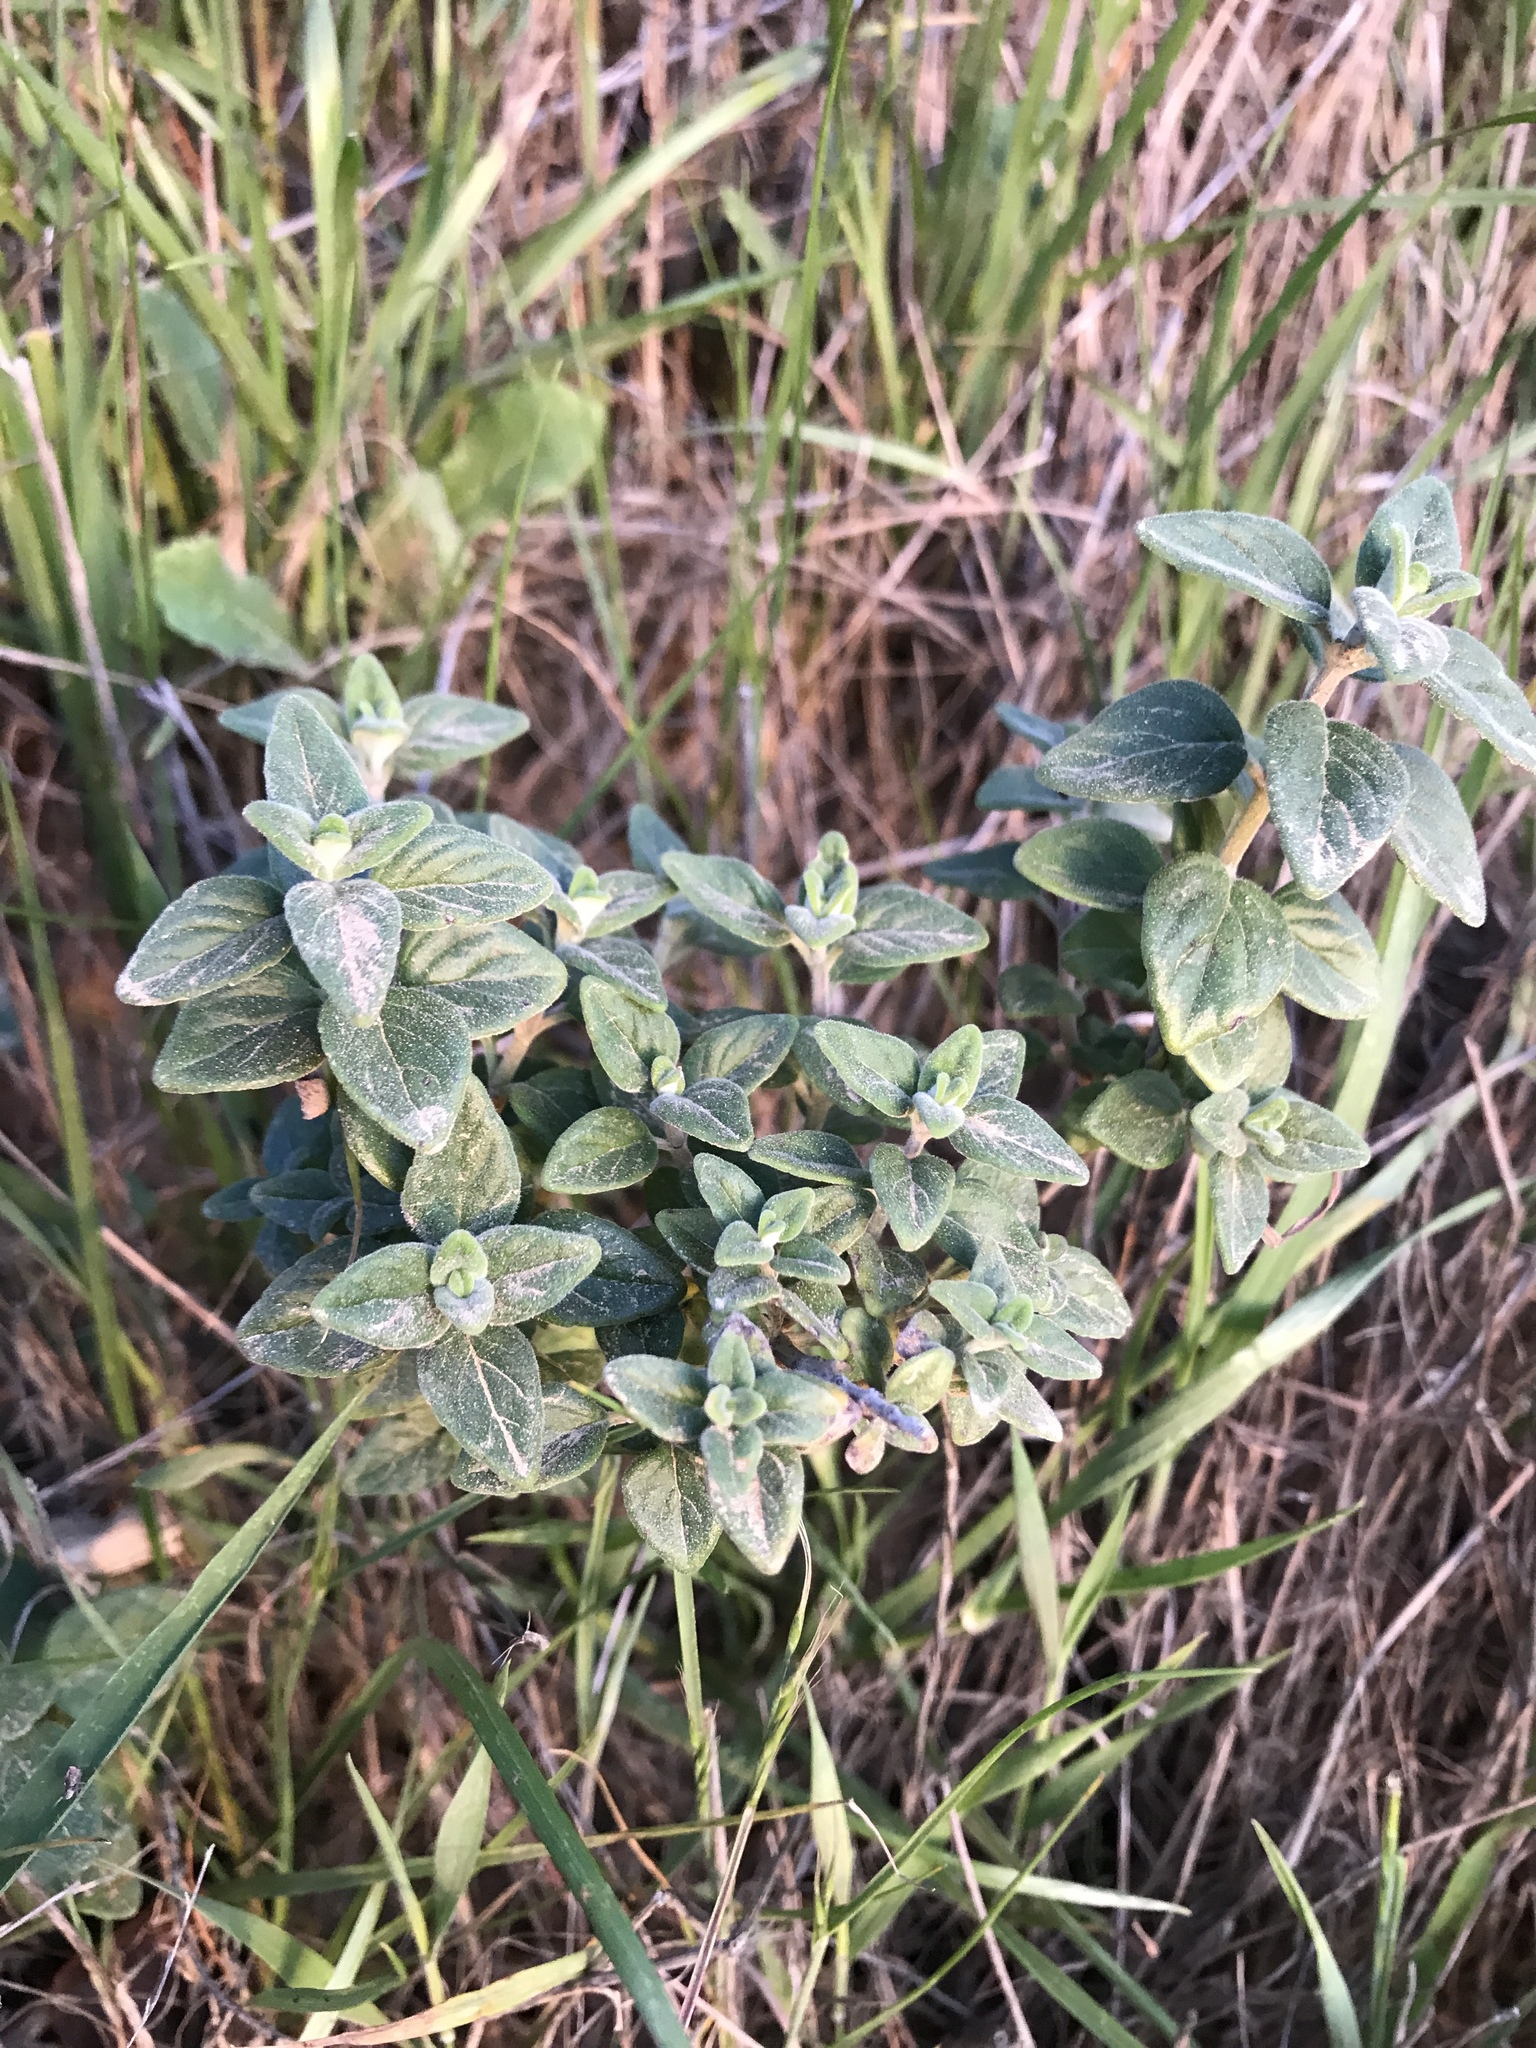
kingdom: Plantae
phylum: Tracheophyta
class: Magnoliopsida
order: Lamiales
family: Lamiaceae
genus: Monardella
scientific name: Monardella odoratissima
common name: Pacific monardella
